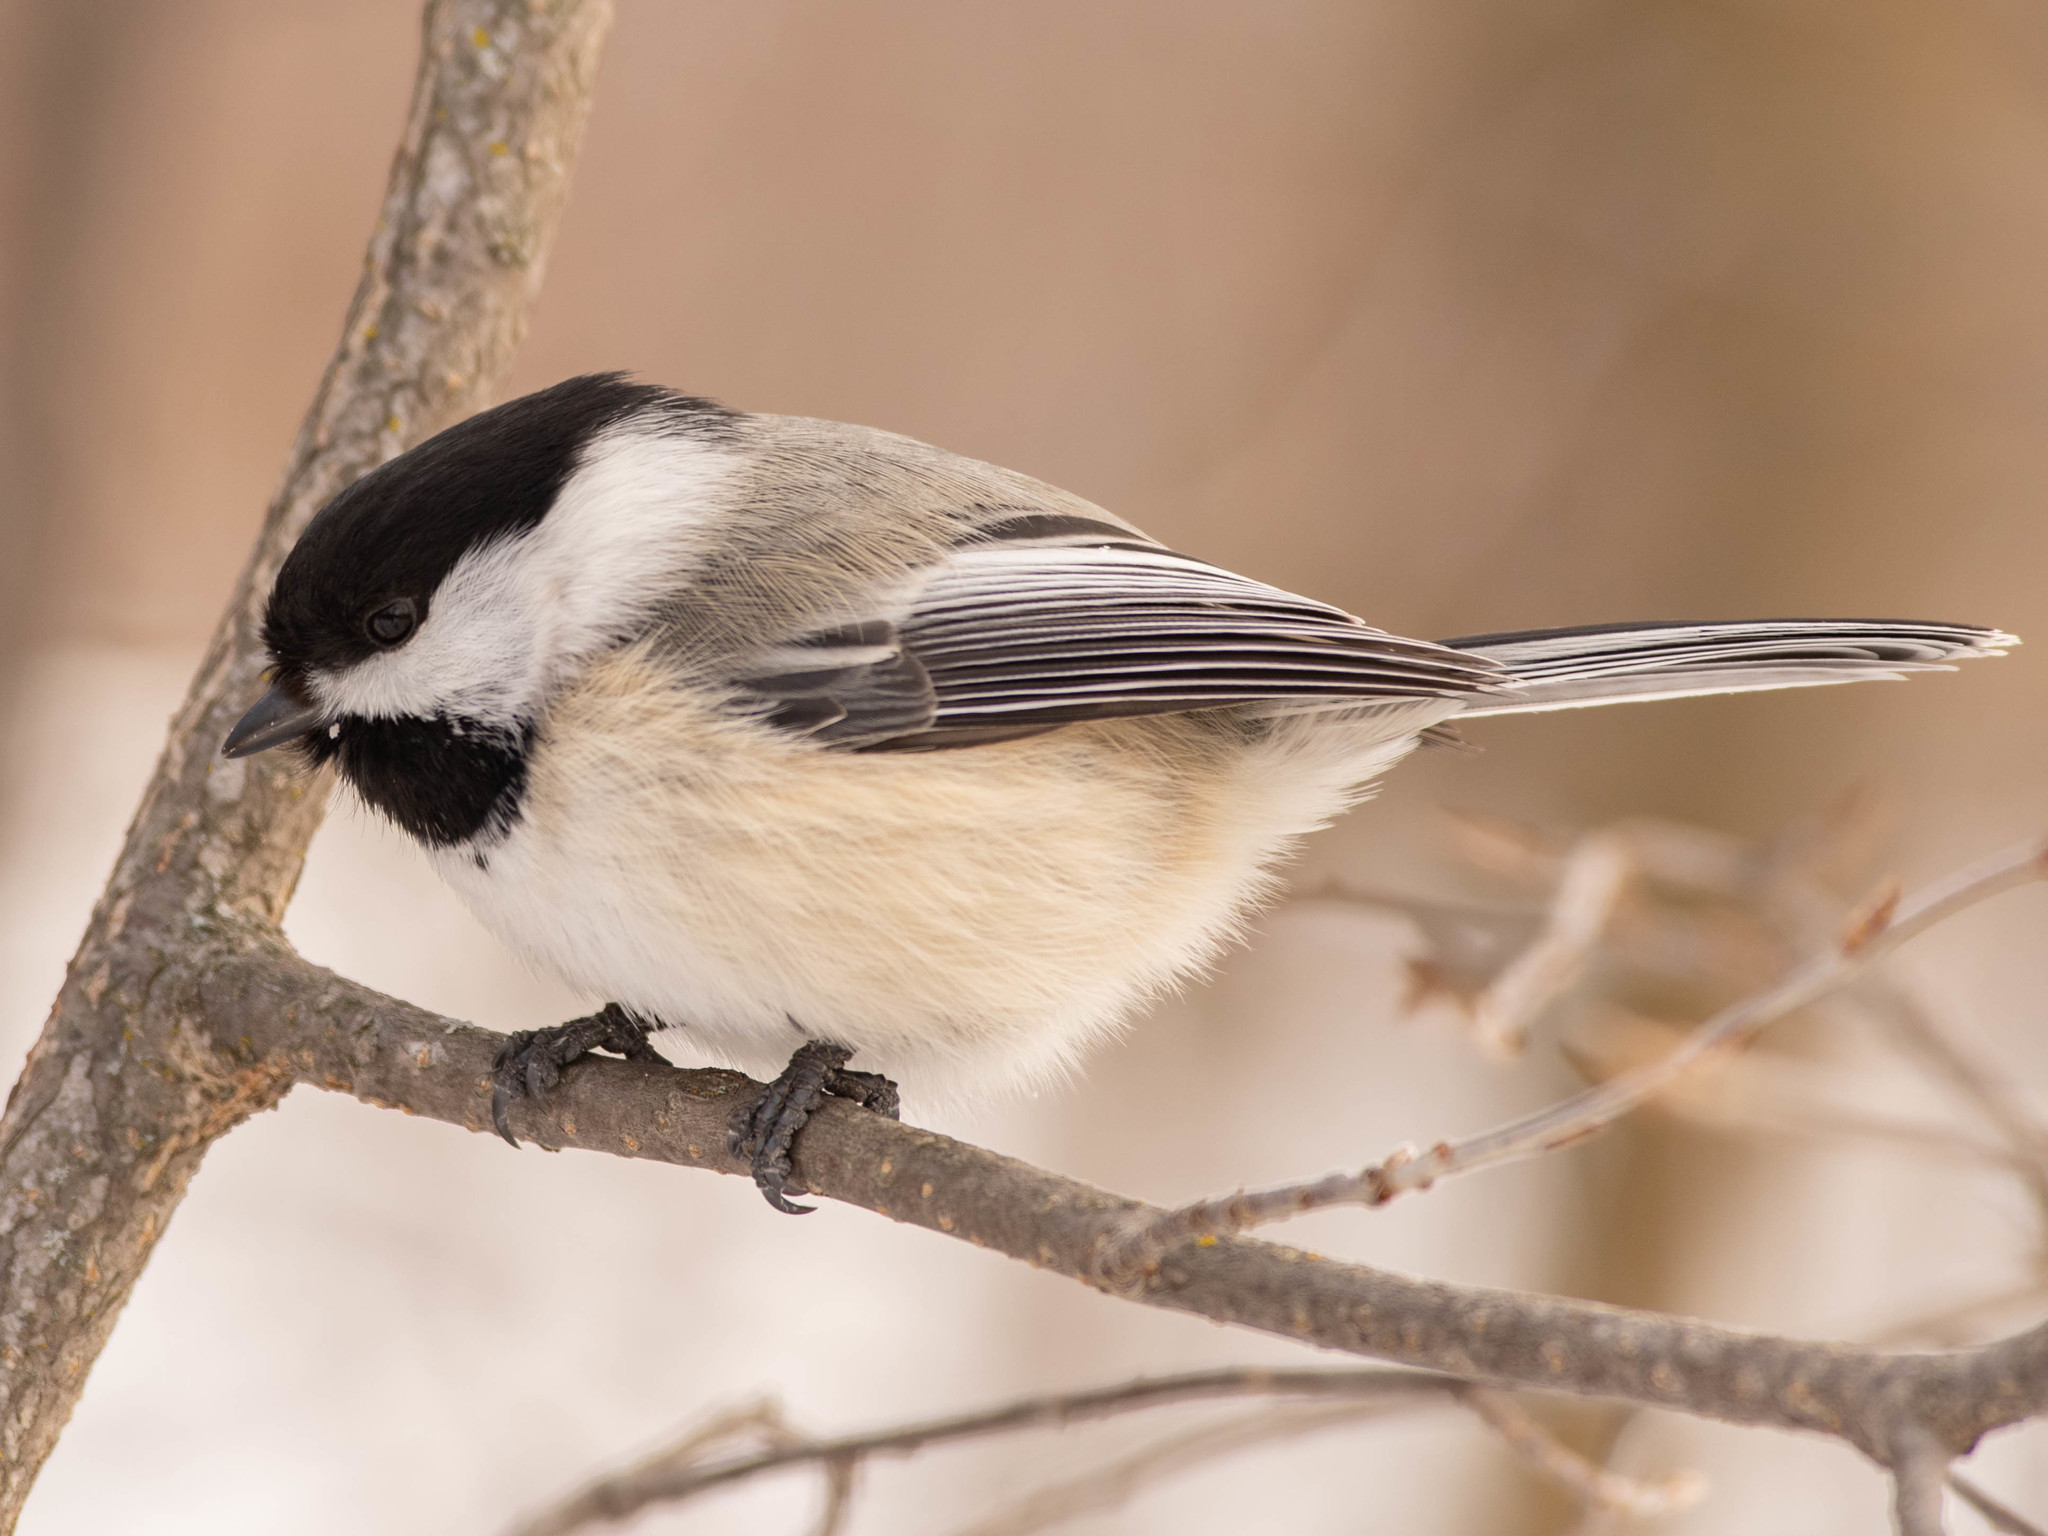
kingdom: Animalia
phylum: Chordata
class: Aves
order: Passeriformes
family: Paridae
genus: Poecile
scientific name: Poecile atricapillus
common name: Black-capped chickadee
